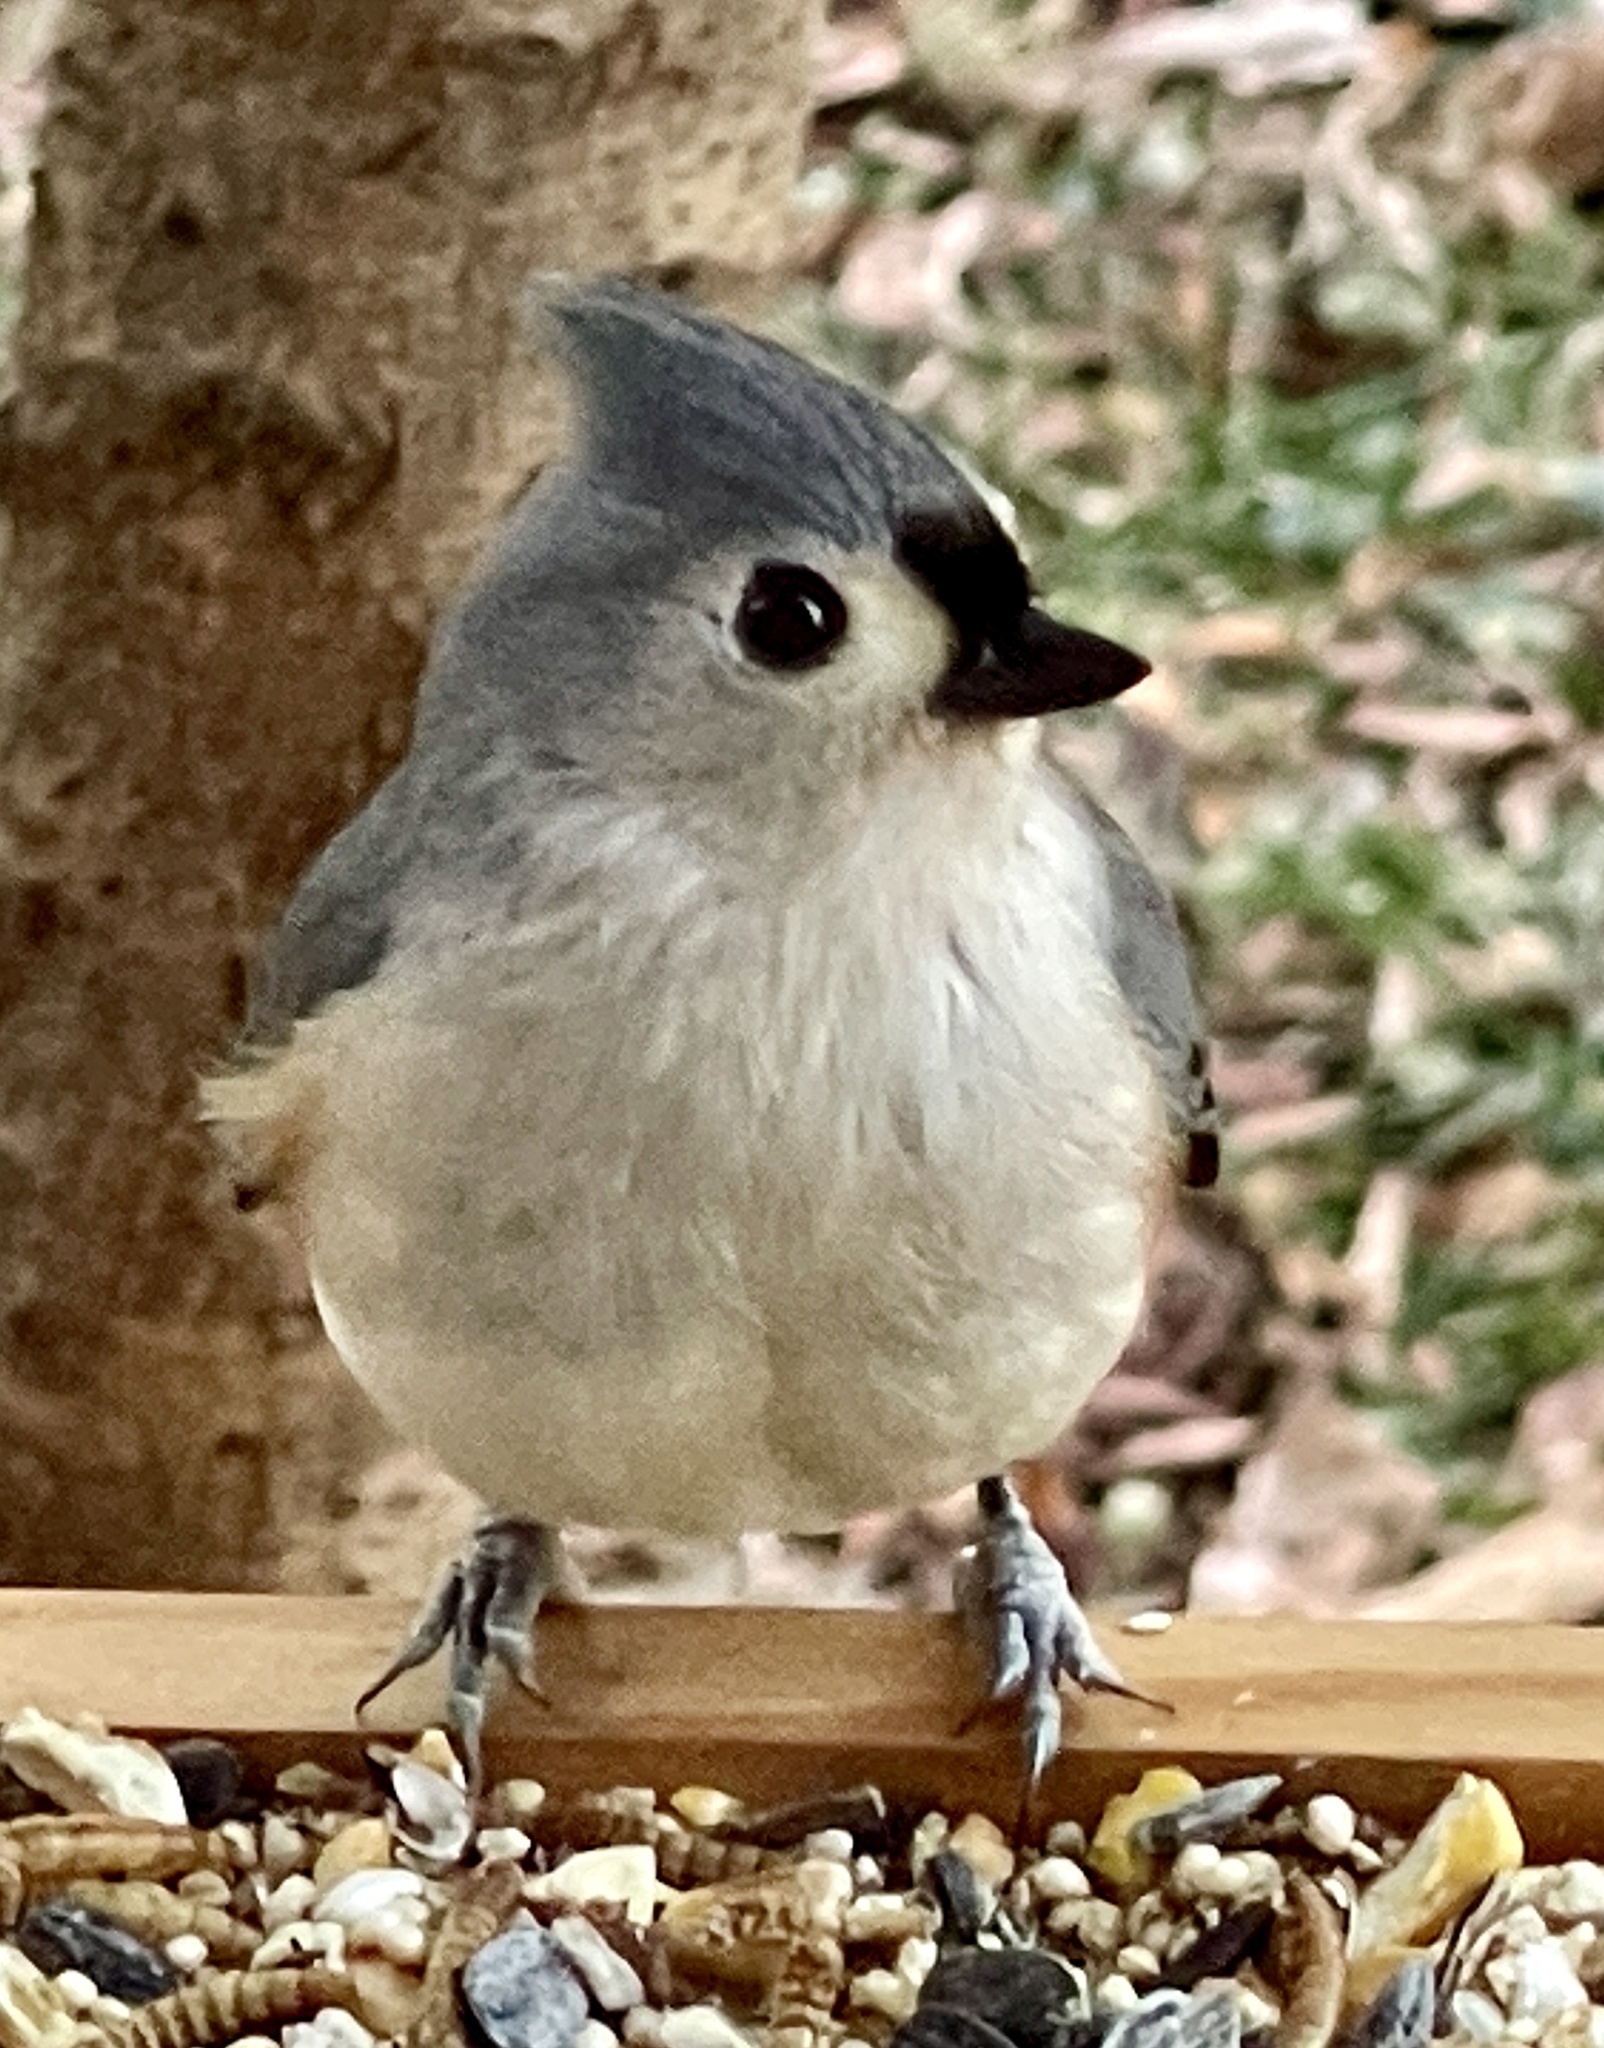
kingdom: Animalia
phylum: Chordata
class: Aves
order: Passeriformes
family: Paridae
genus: Baeolophus
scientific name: Baeolophus bicolor
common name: Tufted titmouse
